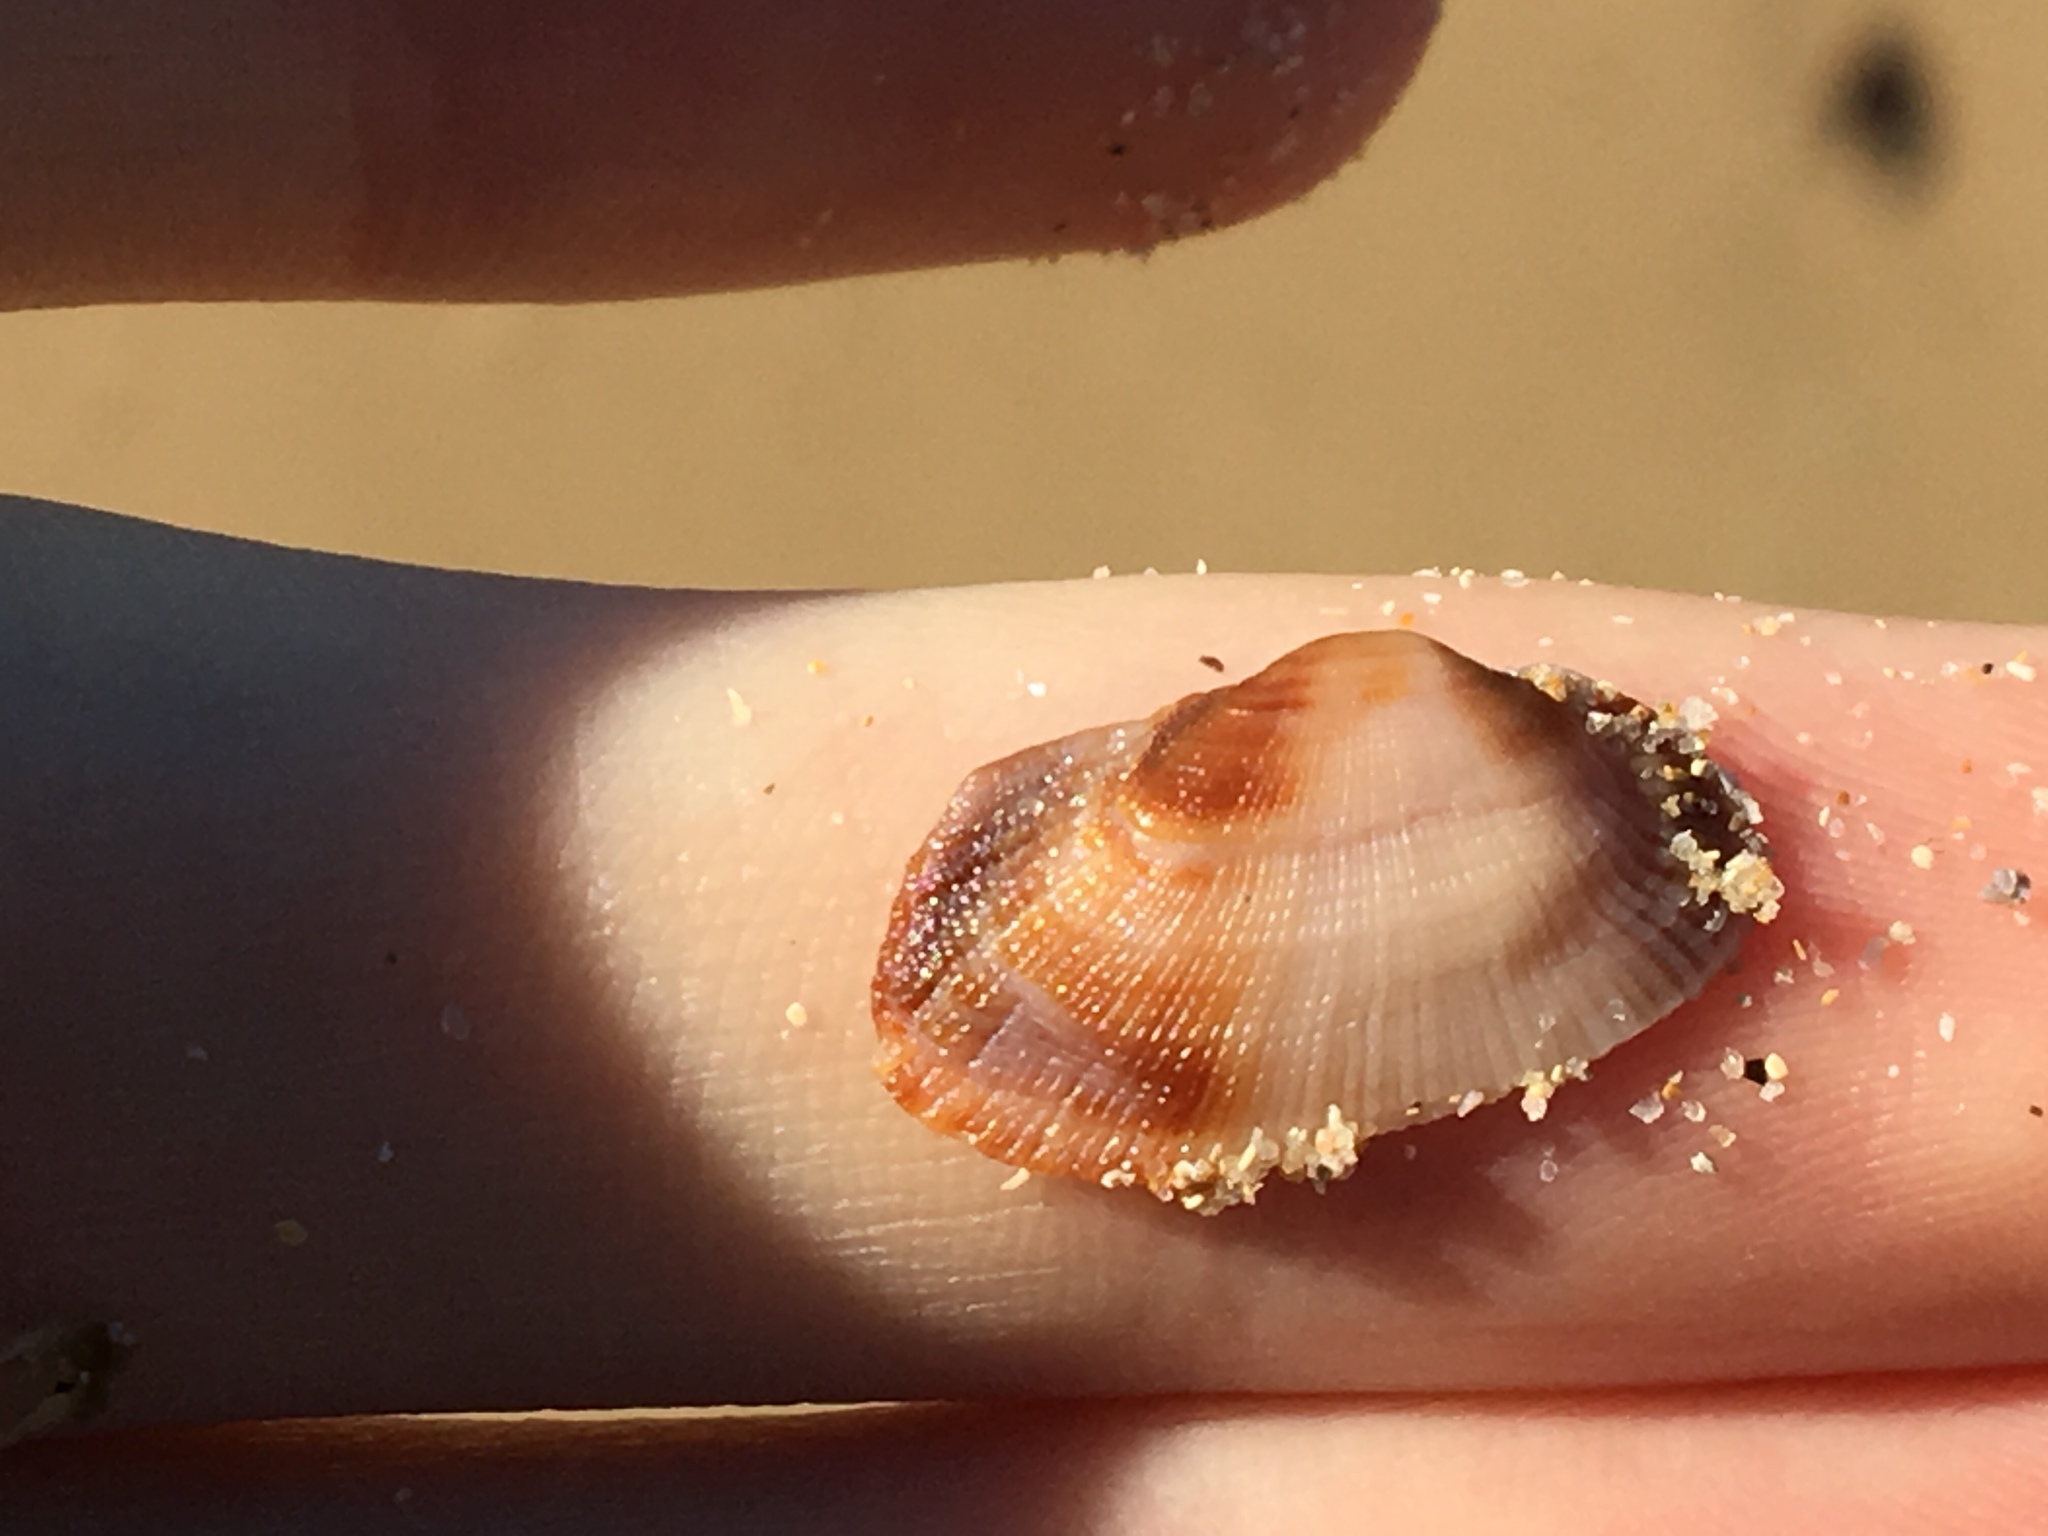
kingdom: Animalia
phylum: Mollusca
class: Bivalvia
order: Arcida
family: Arcidae
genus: Barbatia
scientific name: Barbatia pistachia
